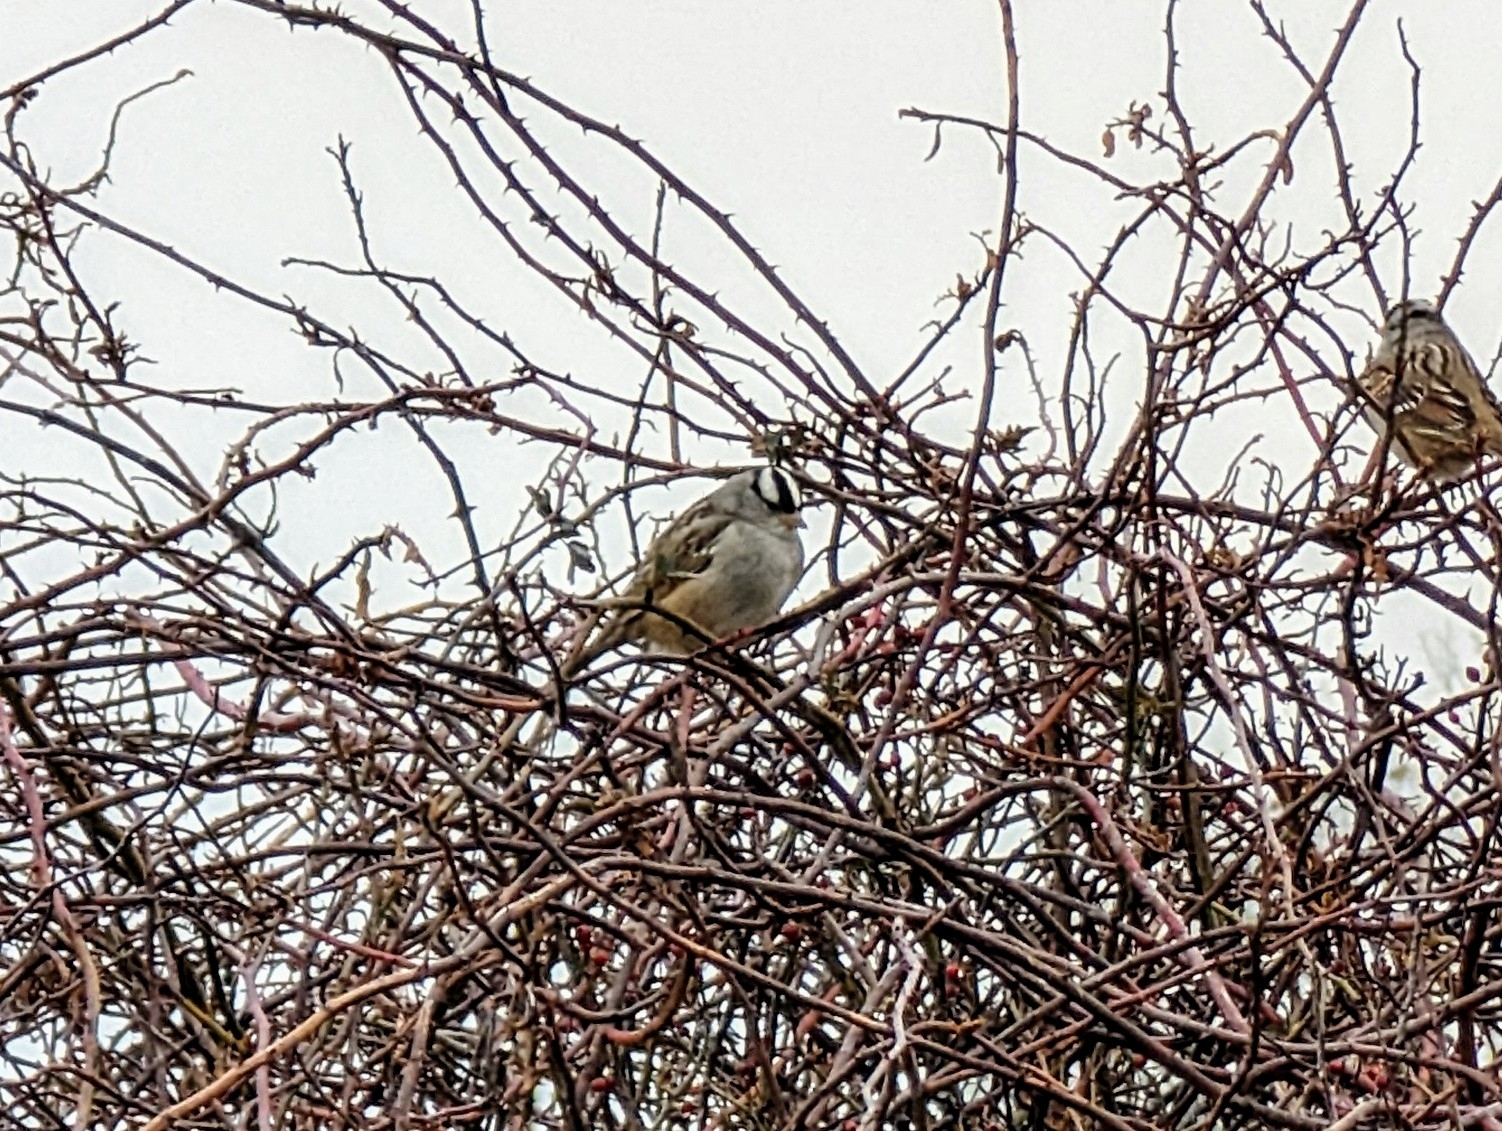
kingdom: Animalia
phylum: Chordata
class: Aves
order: Passeriformes
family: Passerellidae
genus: Zonotrichia
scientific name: Zonotrichia leucophrys
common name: White-crowned sparrow
